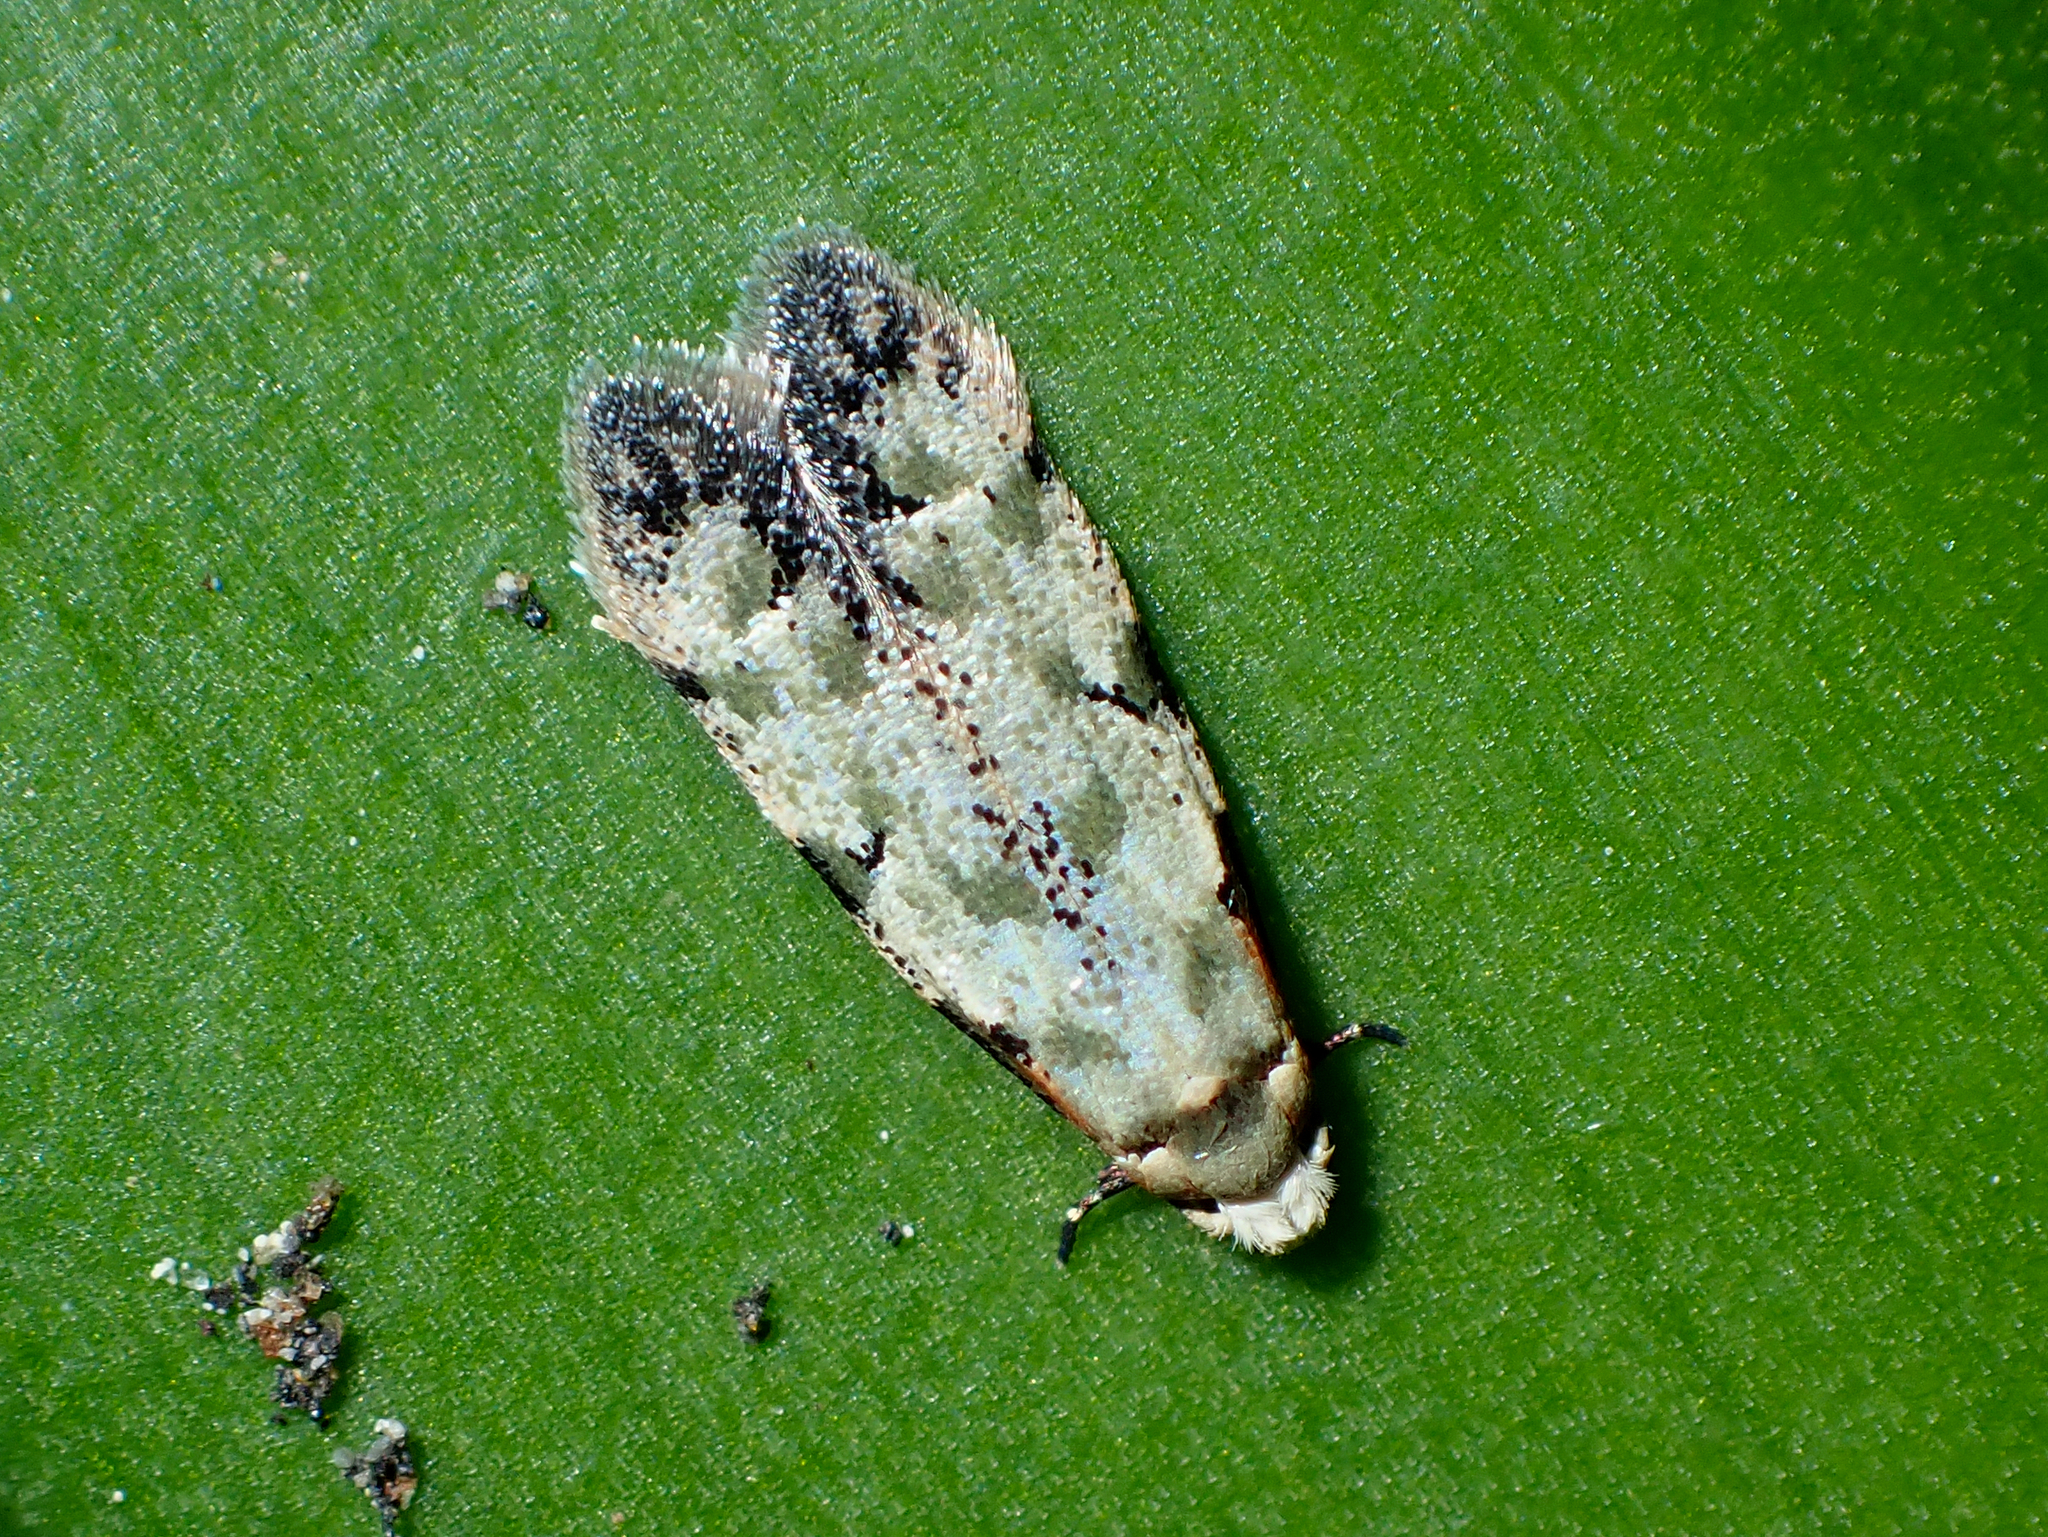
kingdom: Animalia
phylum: Arthropoda
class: Insecta
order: Lepidoptera
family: Tineidae
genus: Endophthora
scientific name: Endophthora pallacopis
